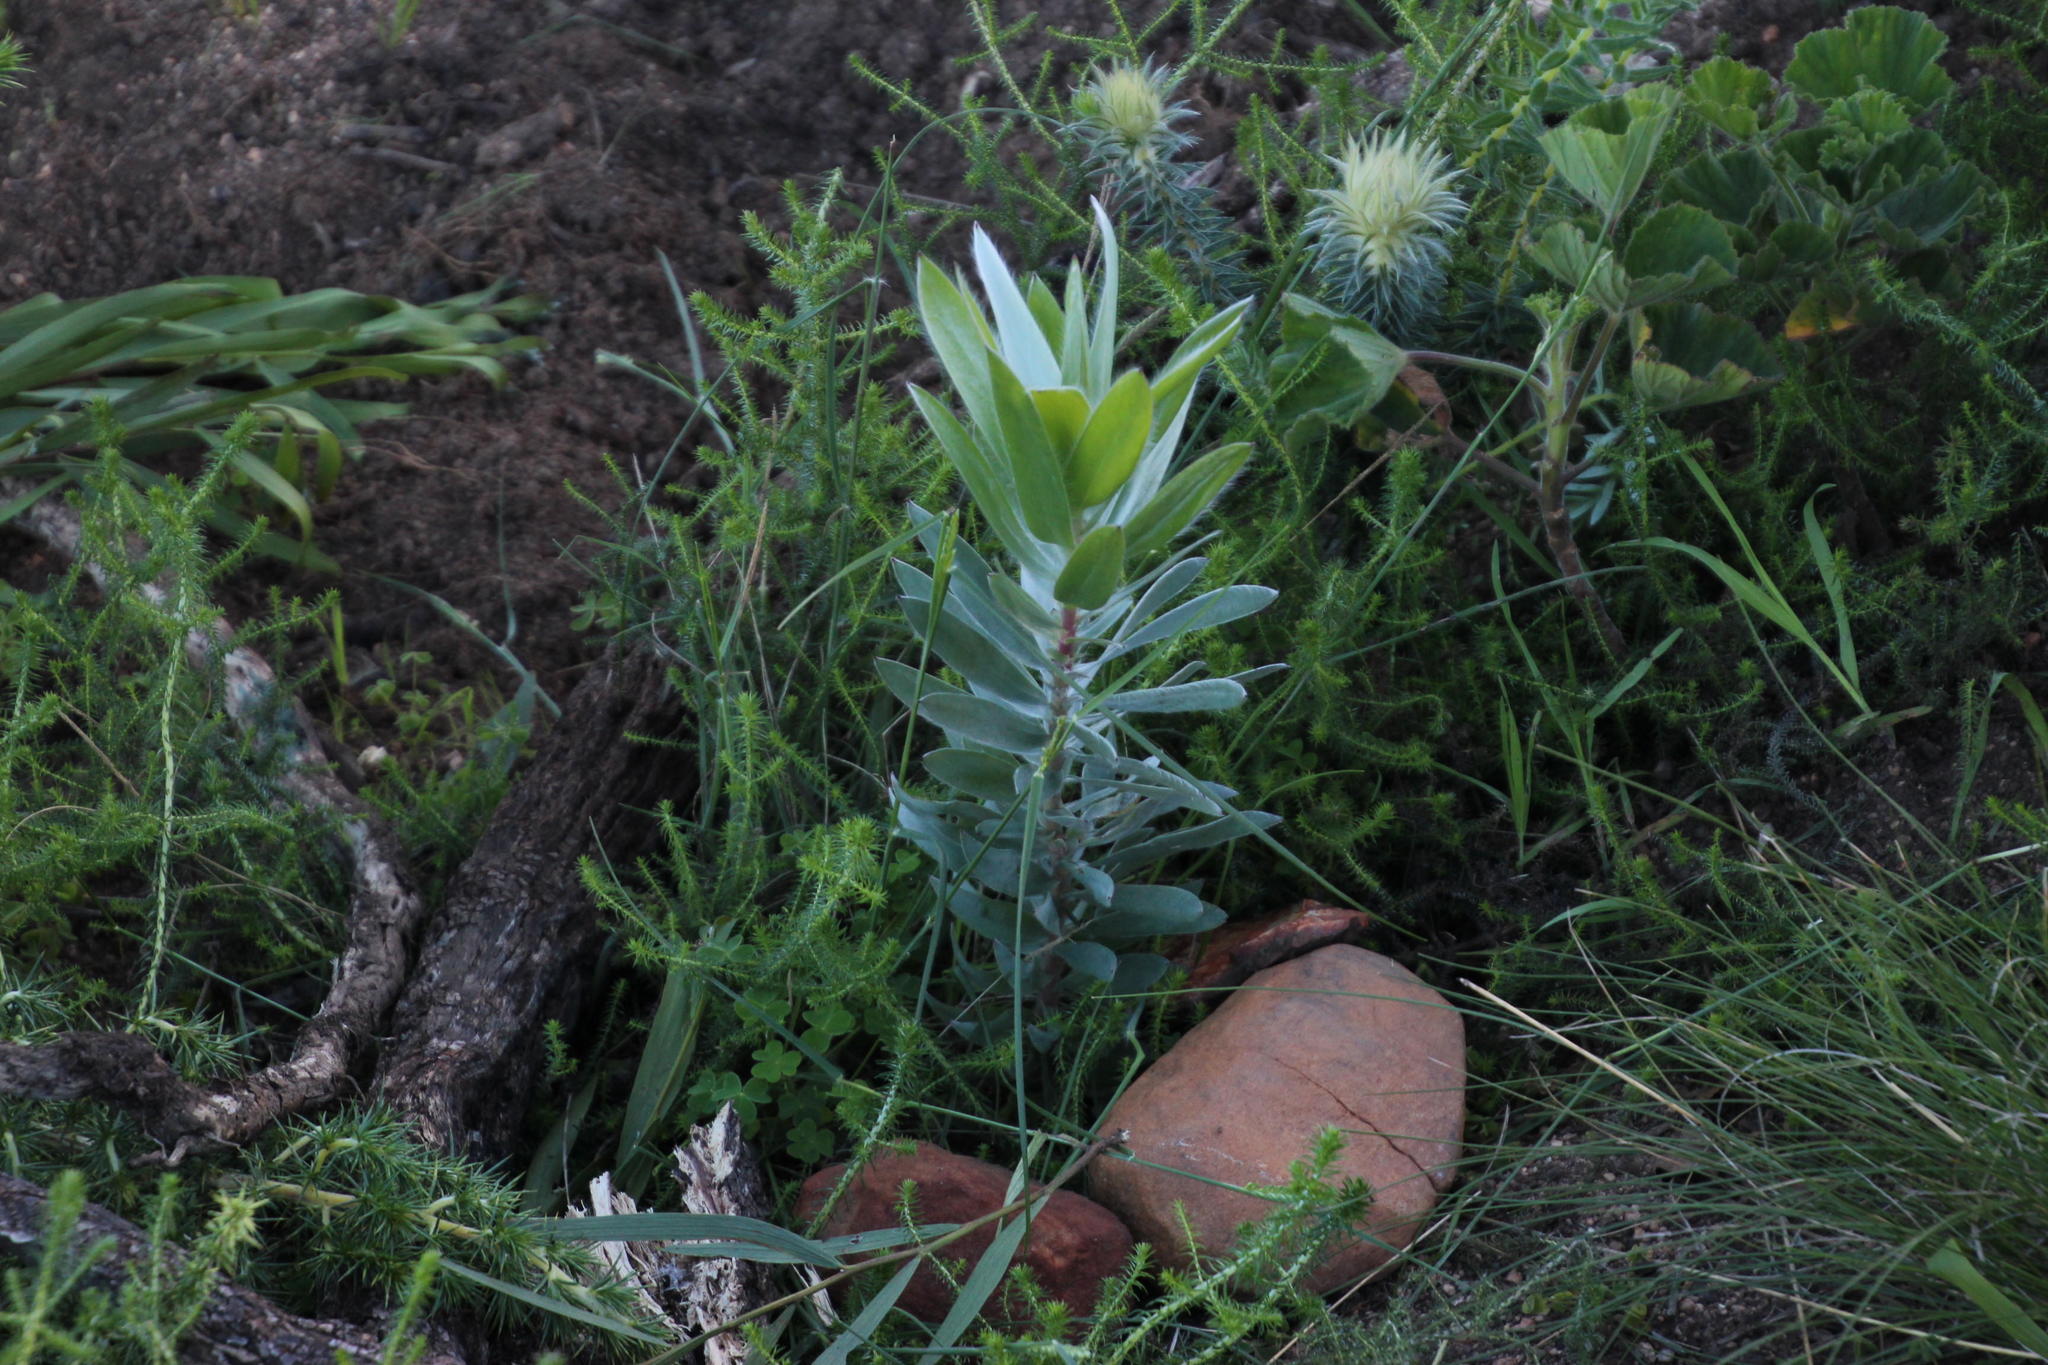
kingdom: Plantae
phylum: Tracheophyta
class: Magnoliopsida
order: Proteales
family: Proteaceae
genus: Leucadendron
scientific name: Leucadendron argenteum
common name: Cape silver tree
